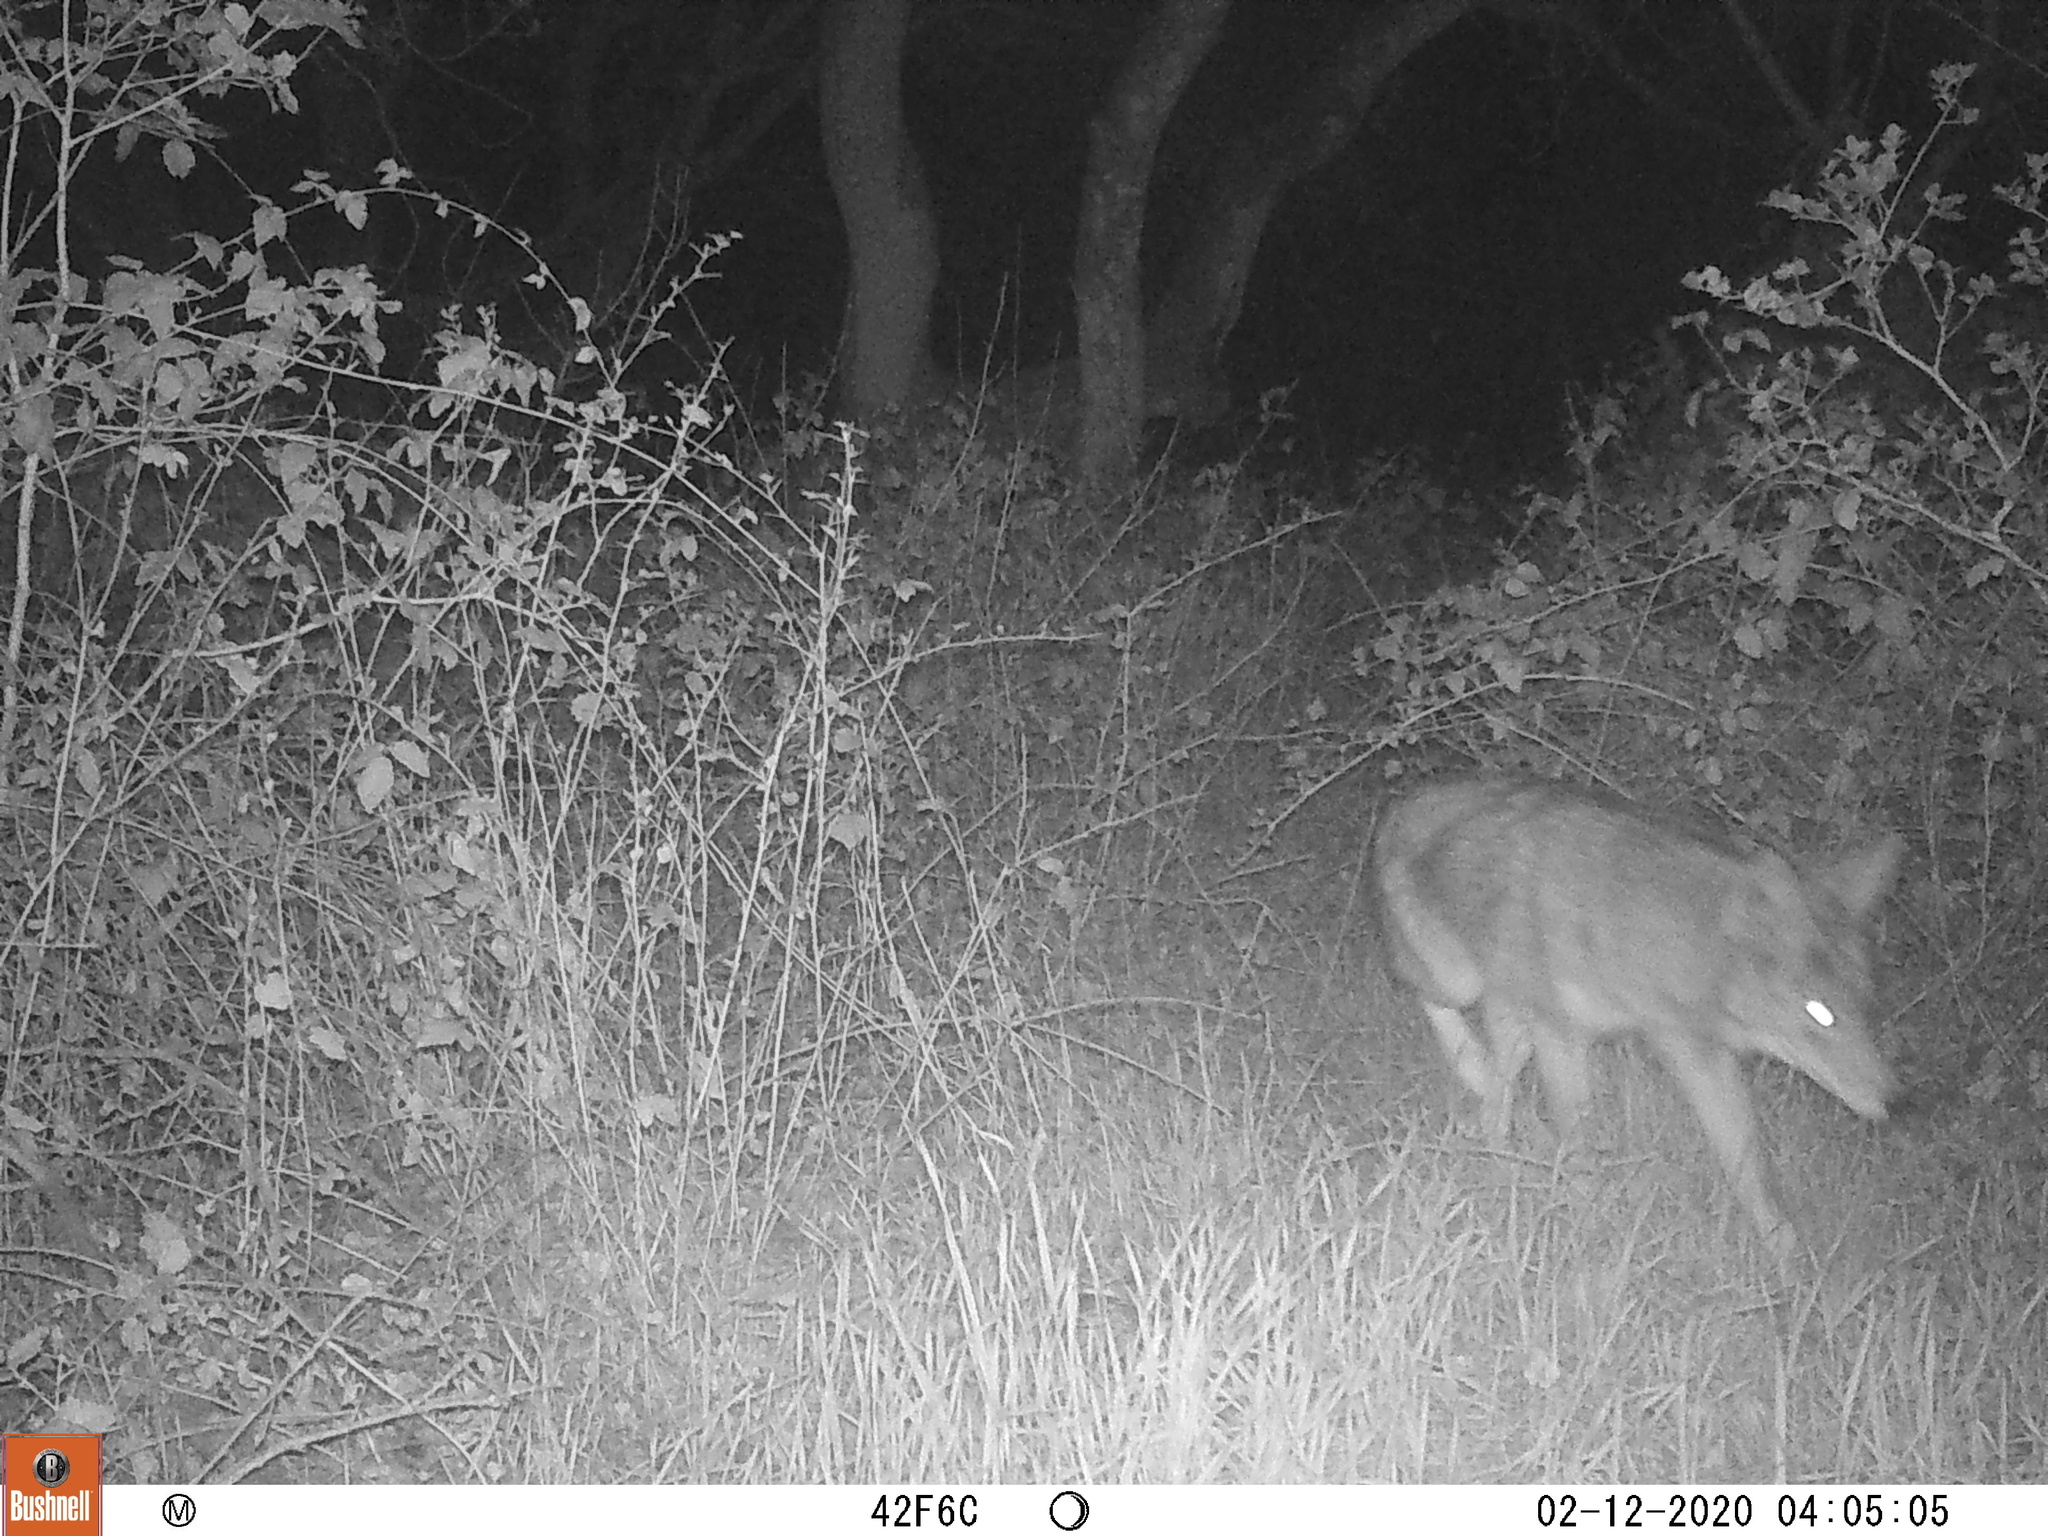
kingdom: Animalia
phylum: Chordata
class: Mammalia
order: Carnivora
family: Canidae
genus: Canis
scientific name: Canis latrans
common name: Coyote
